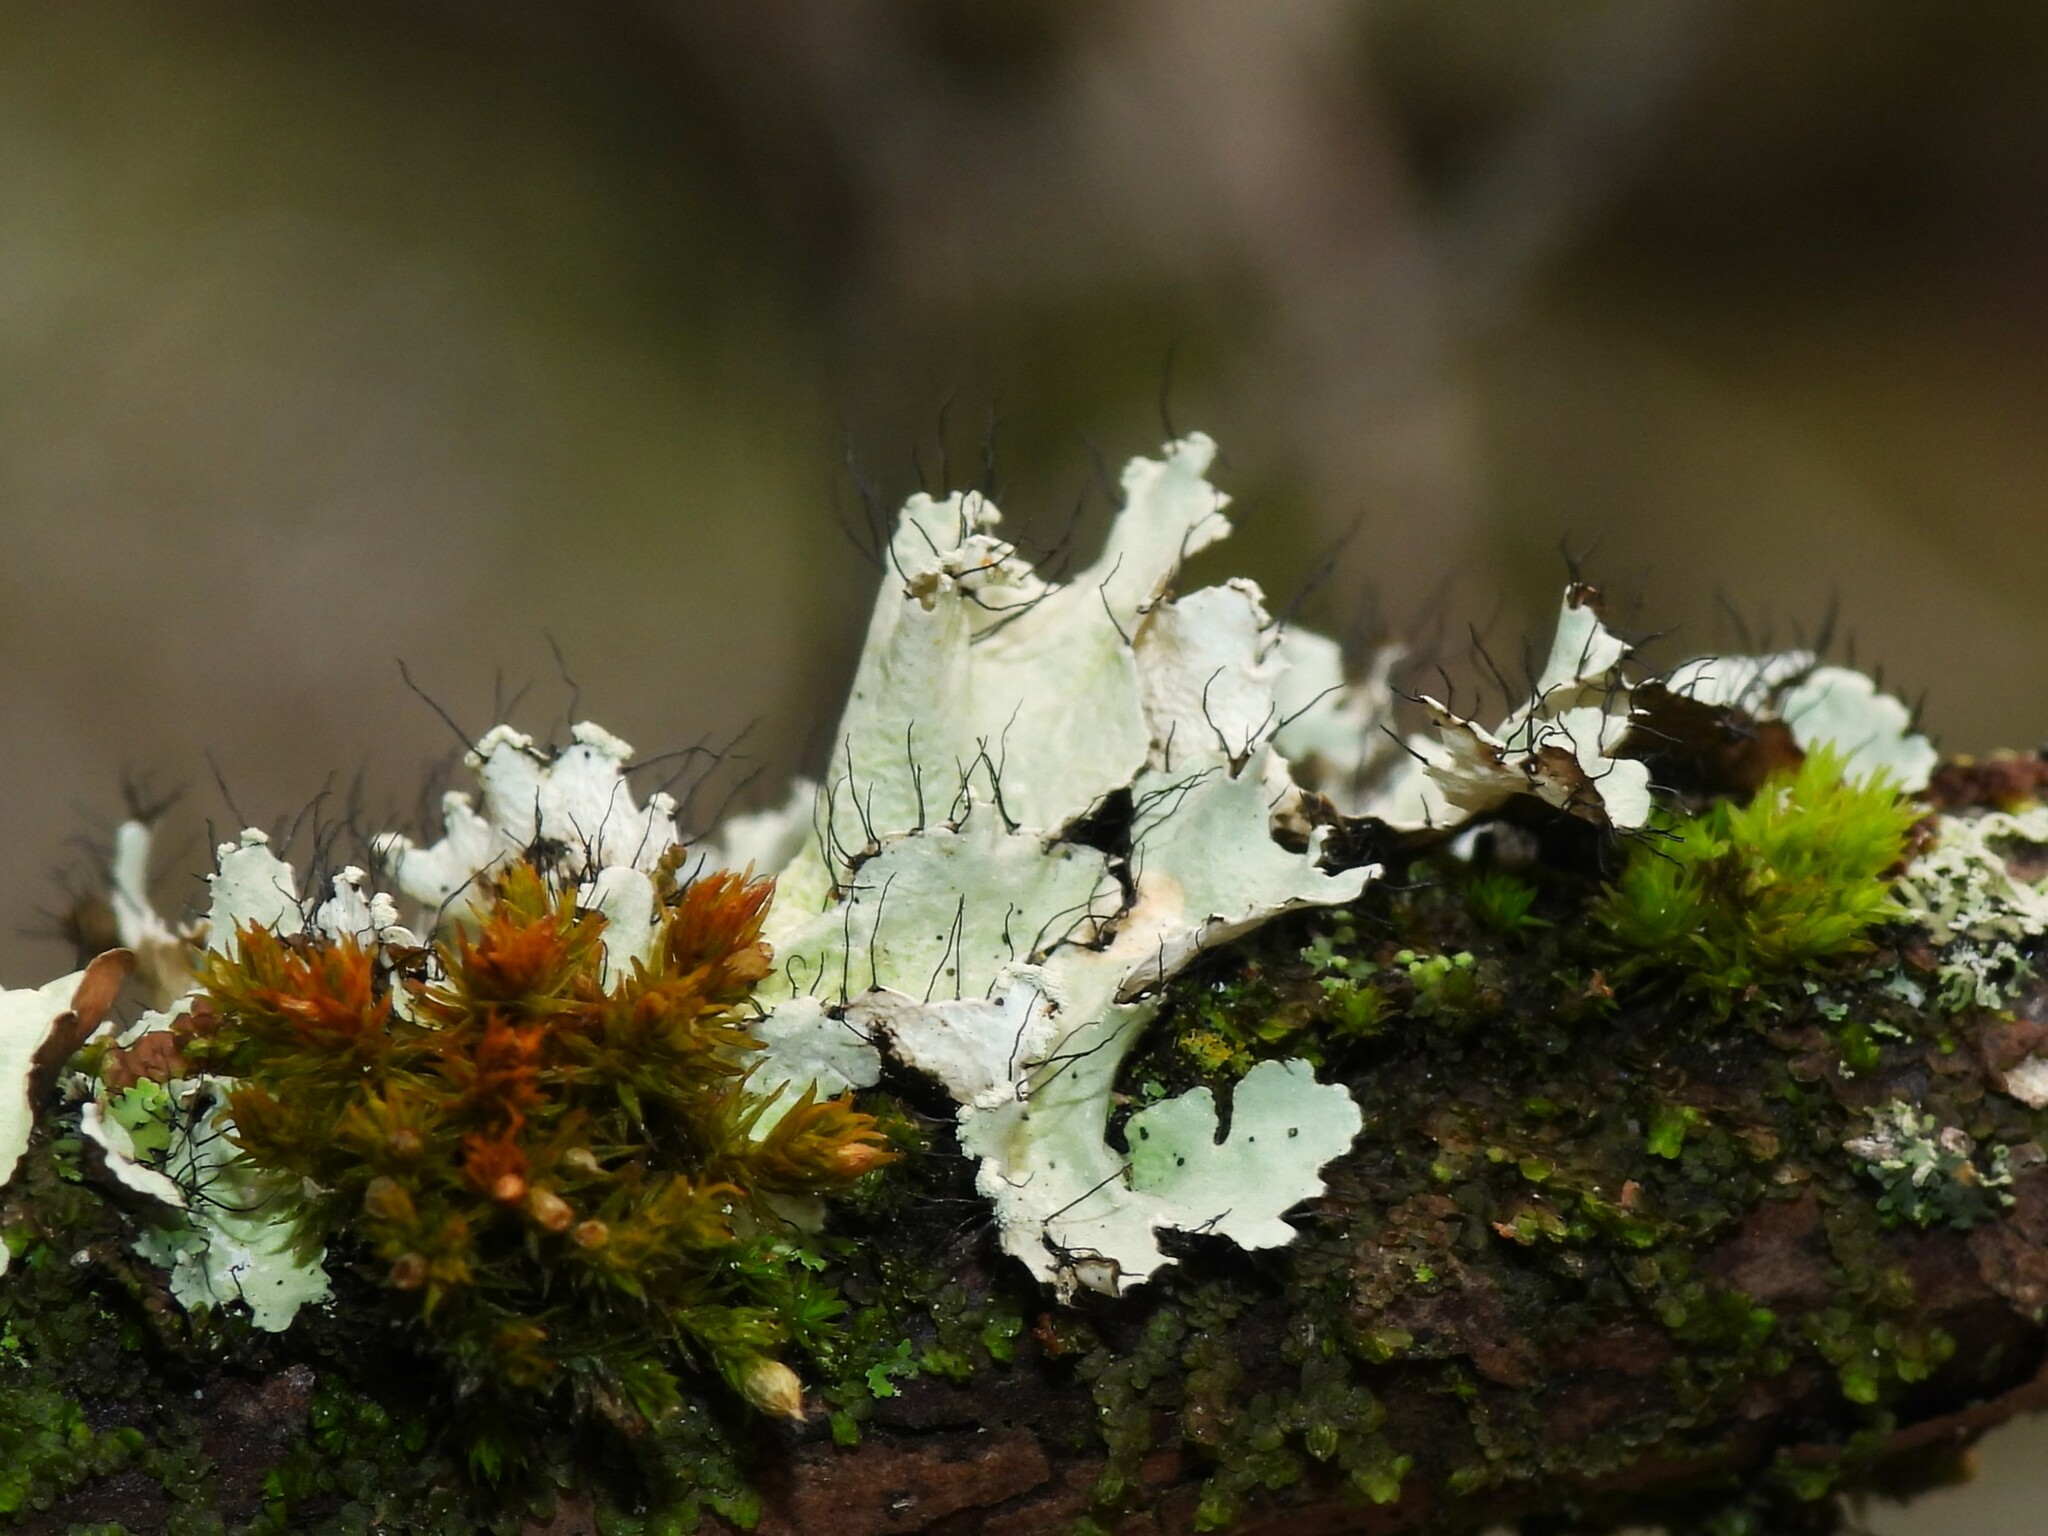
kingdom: Fungi
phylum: Ascomycota
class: Lecanoromycetes
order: Lecanorales
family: Parmeliaceae
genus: Parmotrema
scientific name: Parmotrema hypotropum
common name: Powdered ruffle lichen
